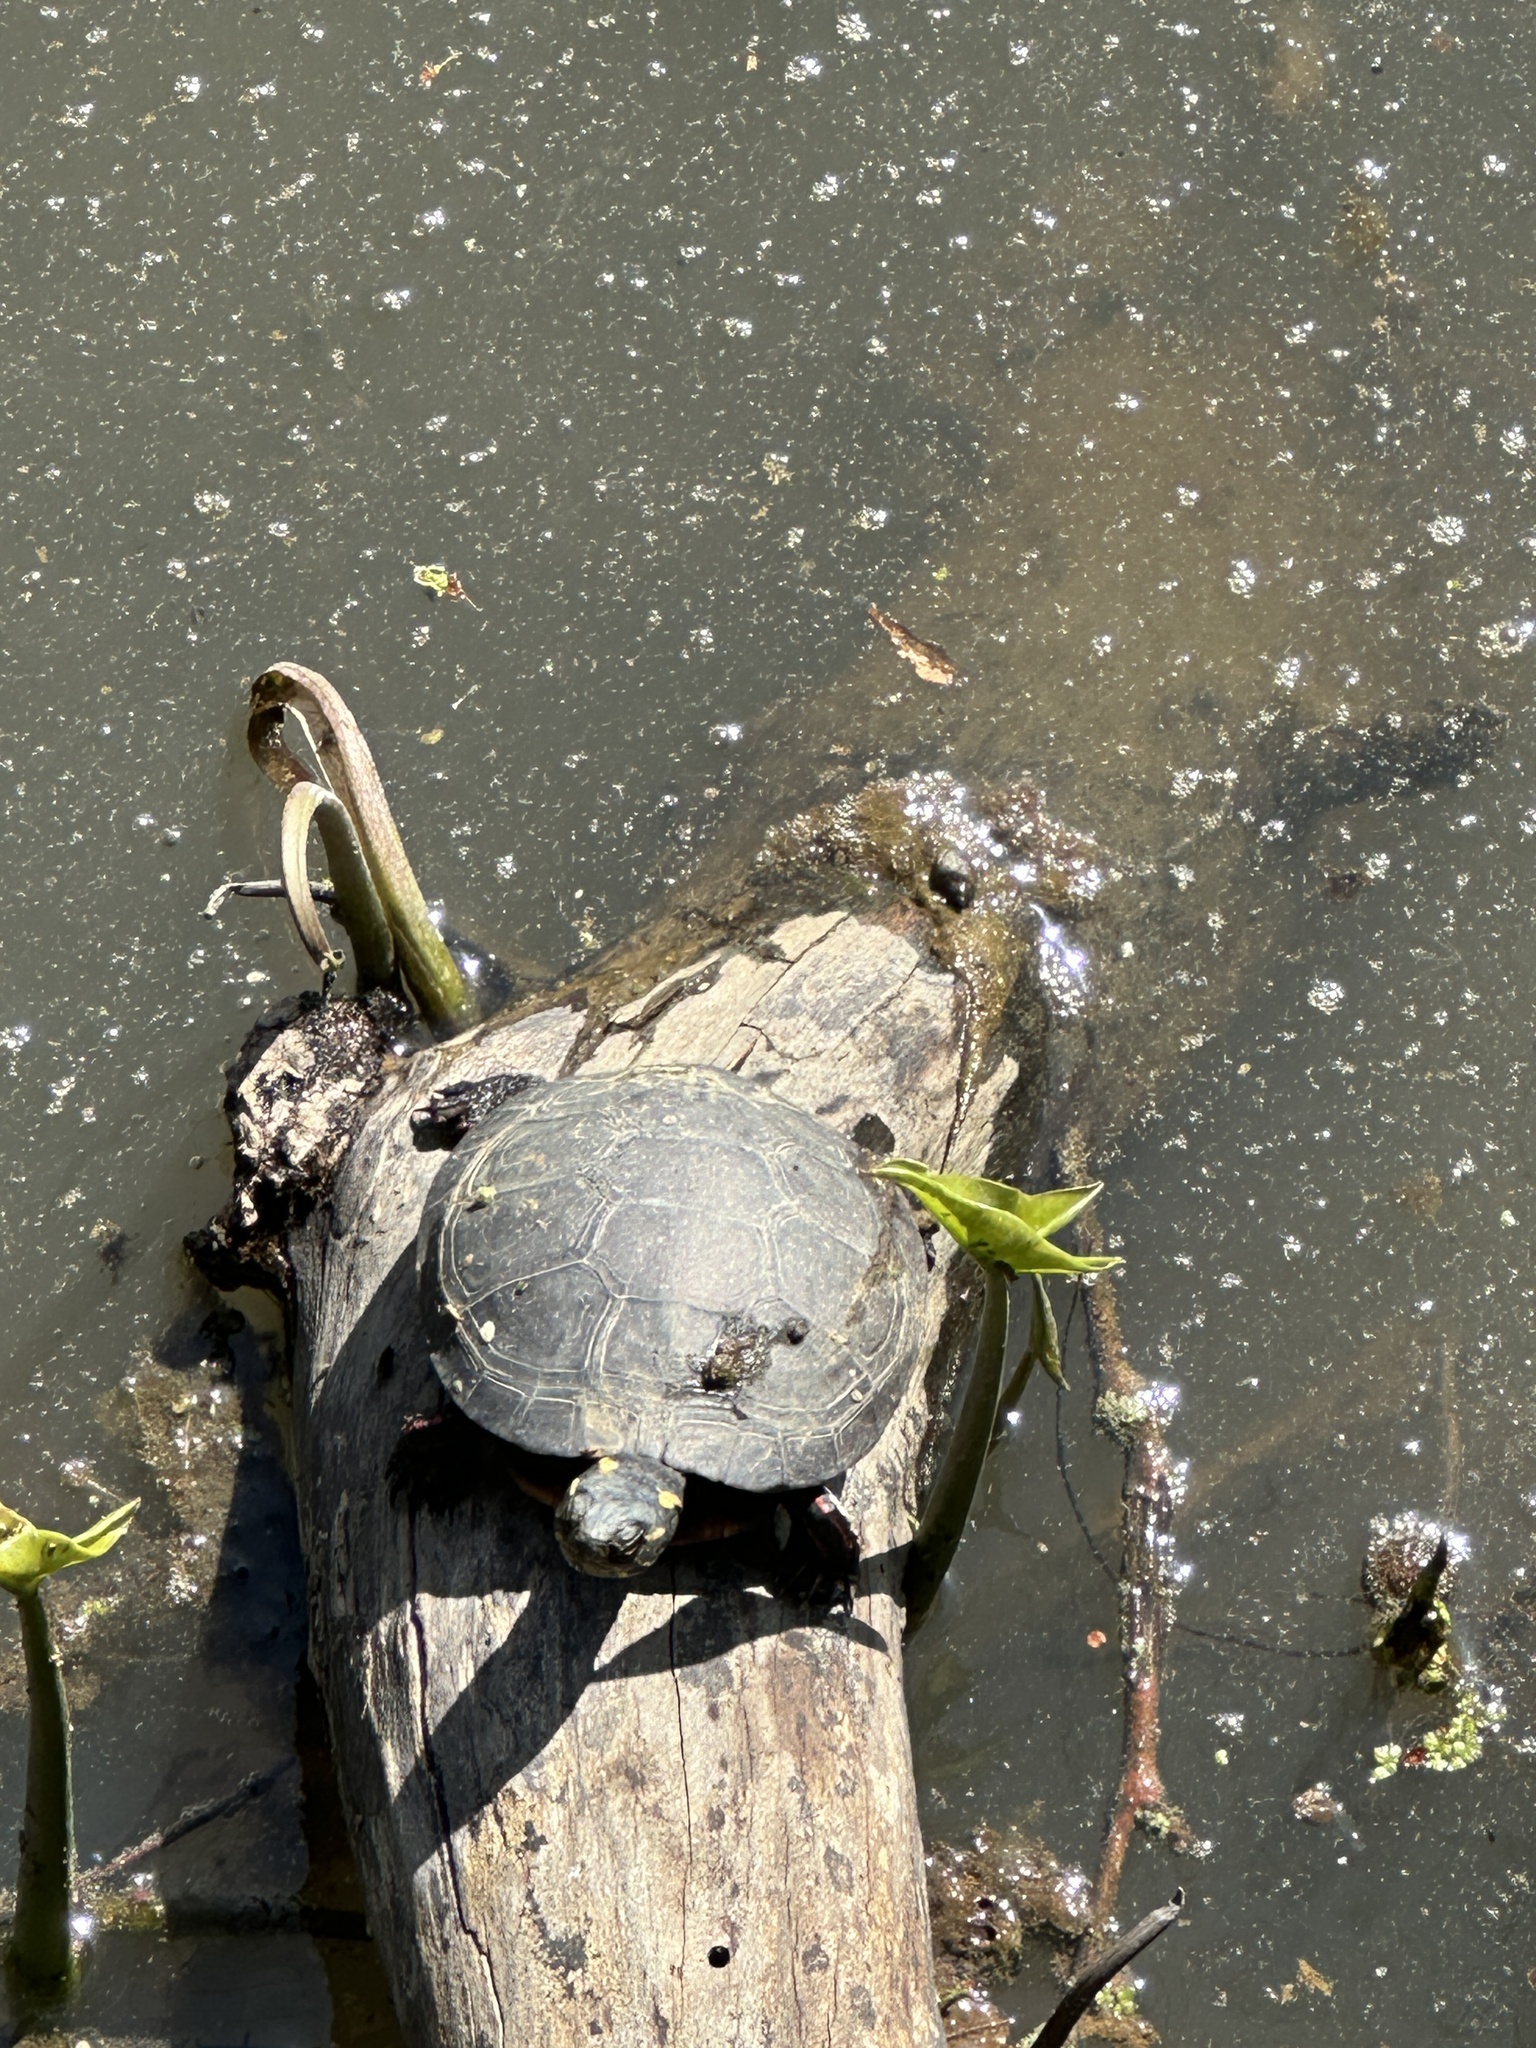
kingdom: Animalia
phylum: Chordata
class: Testudines
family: Emydidae
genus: Chrysemys
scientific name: Chrysemys picta
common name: Painted turtle
